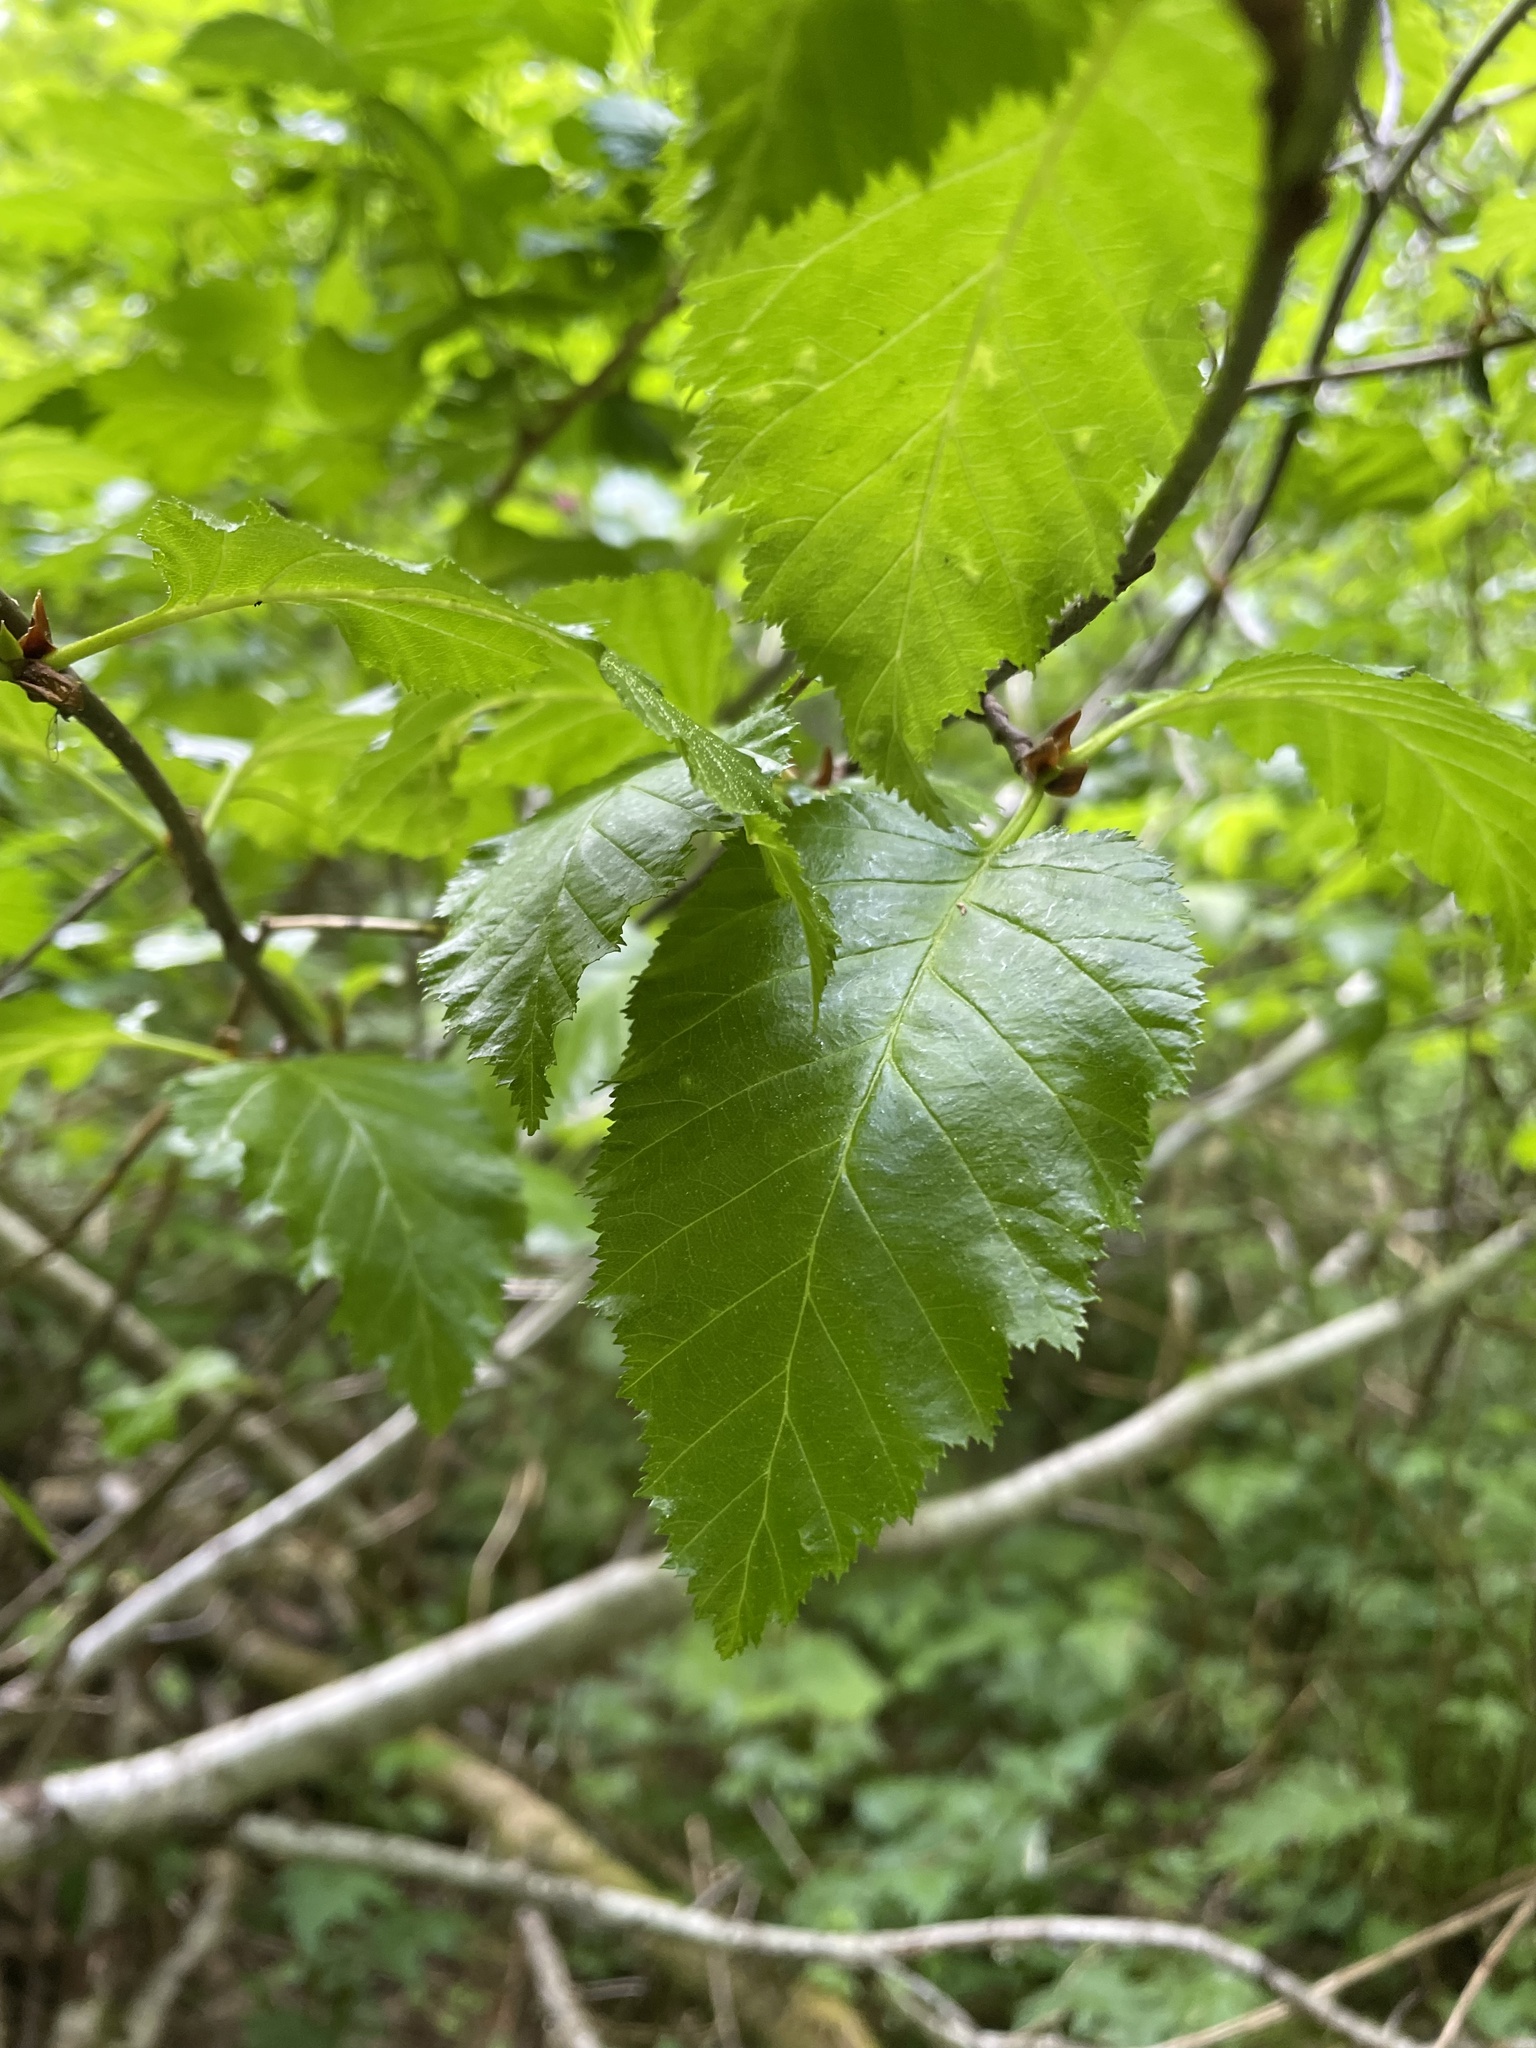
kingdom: Plantae
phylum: Tracheophyta
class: Magnoliopsida
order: Rosales
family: Rosaceae
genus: Rubus
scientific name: Rubus spectabilis
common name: Salmonberry
